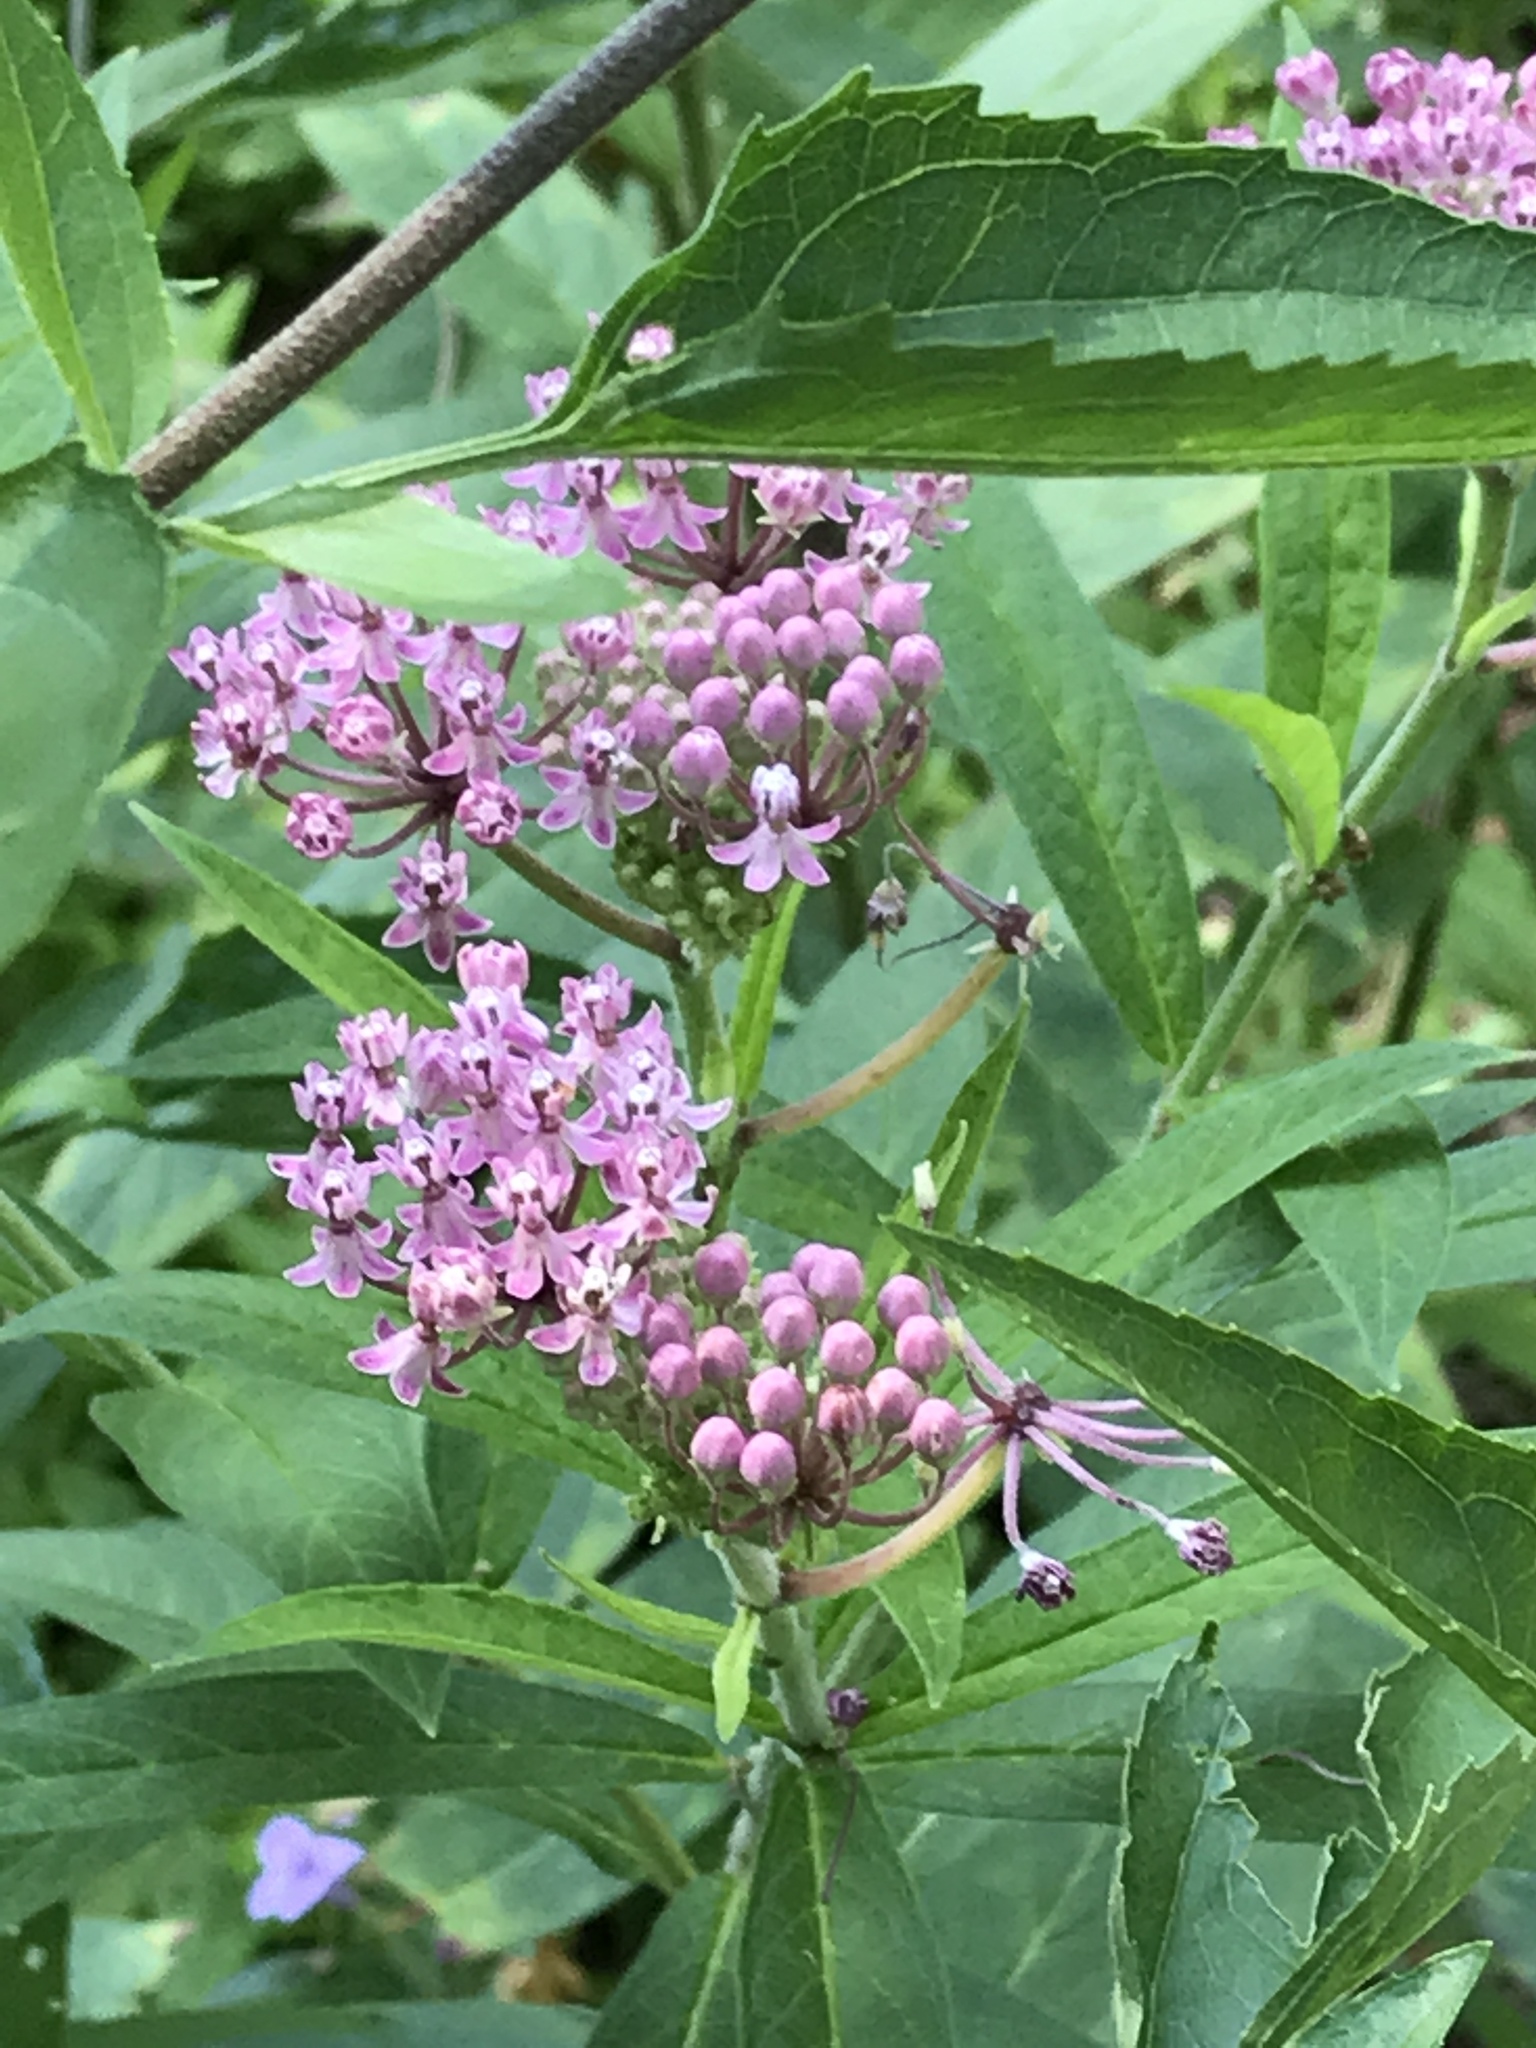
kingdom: Plantae
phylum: Tracheophyta
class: Magnoliopsida
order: Gentianales
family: Apocynaceae
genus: Asclepias
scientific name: Asclepias incarnata
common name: Swamp milkweed
